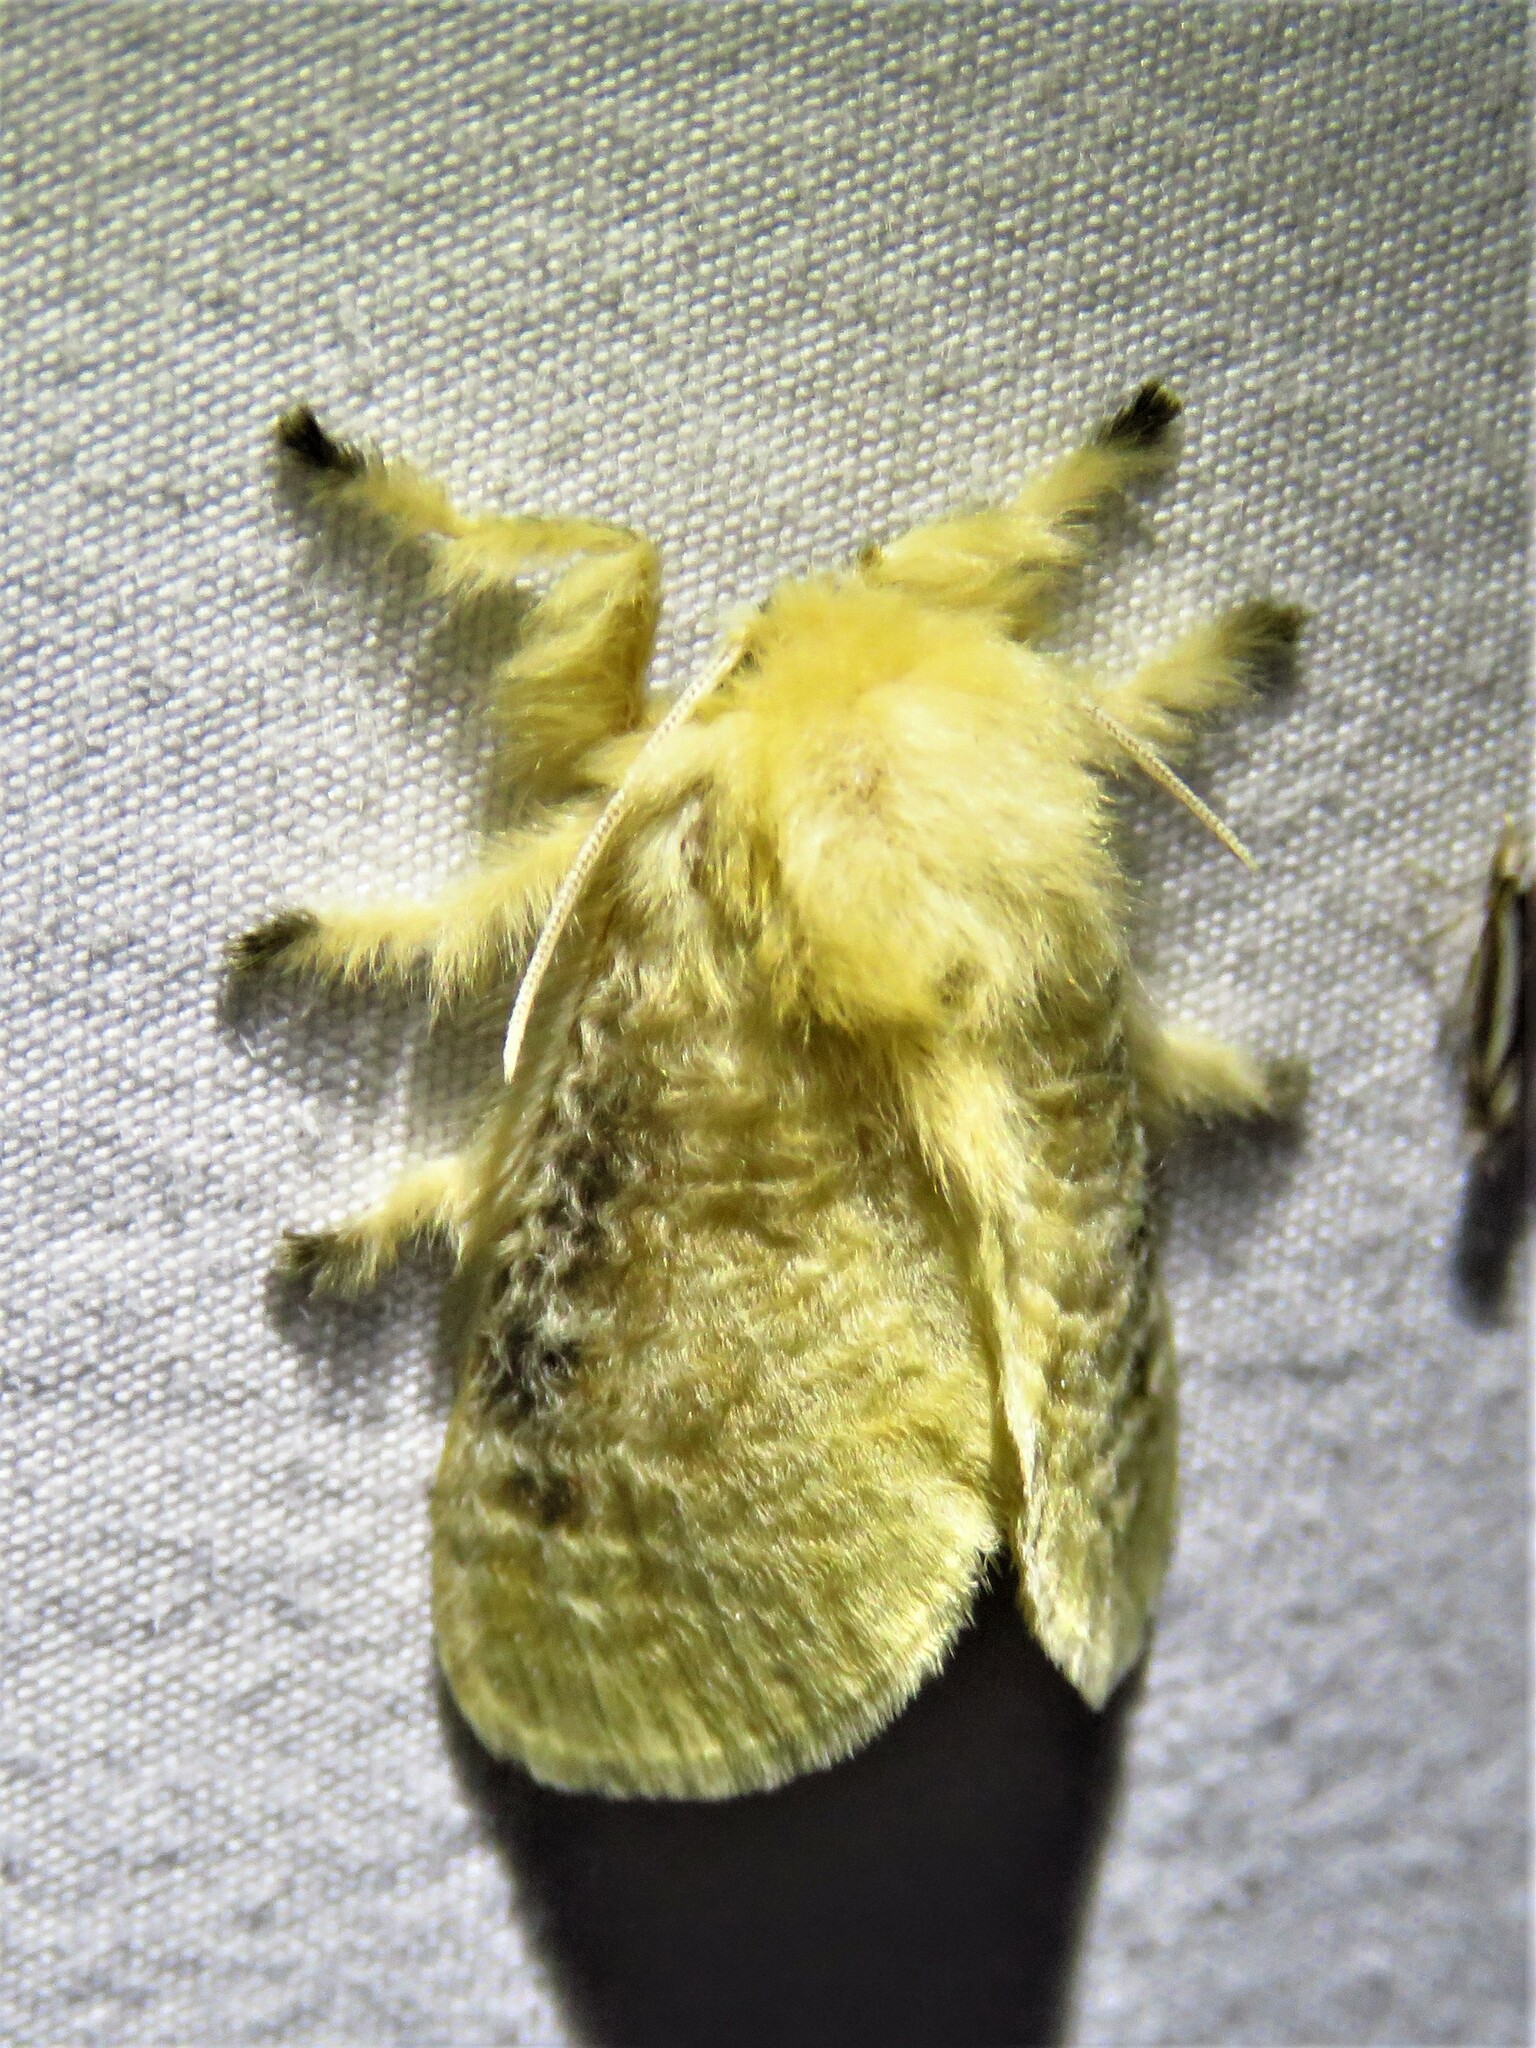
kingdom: Animalia
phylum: Arthropoda
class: Insecta
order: Lepidoptera
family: Megalopygidae
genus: Megalopyge
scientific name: Megalopyge crispata
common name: Black-waved flannel moth
